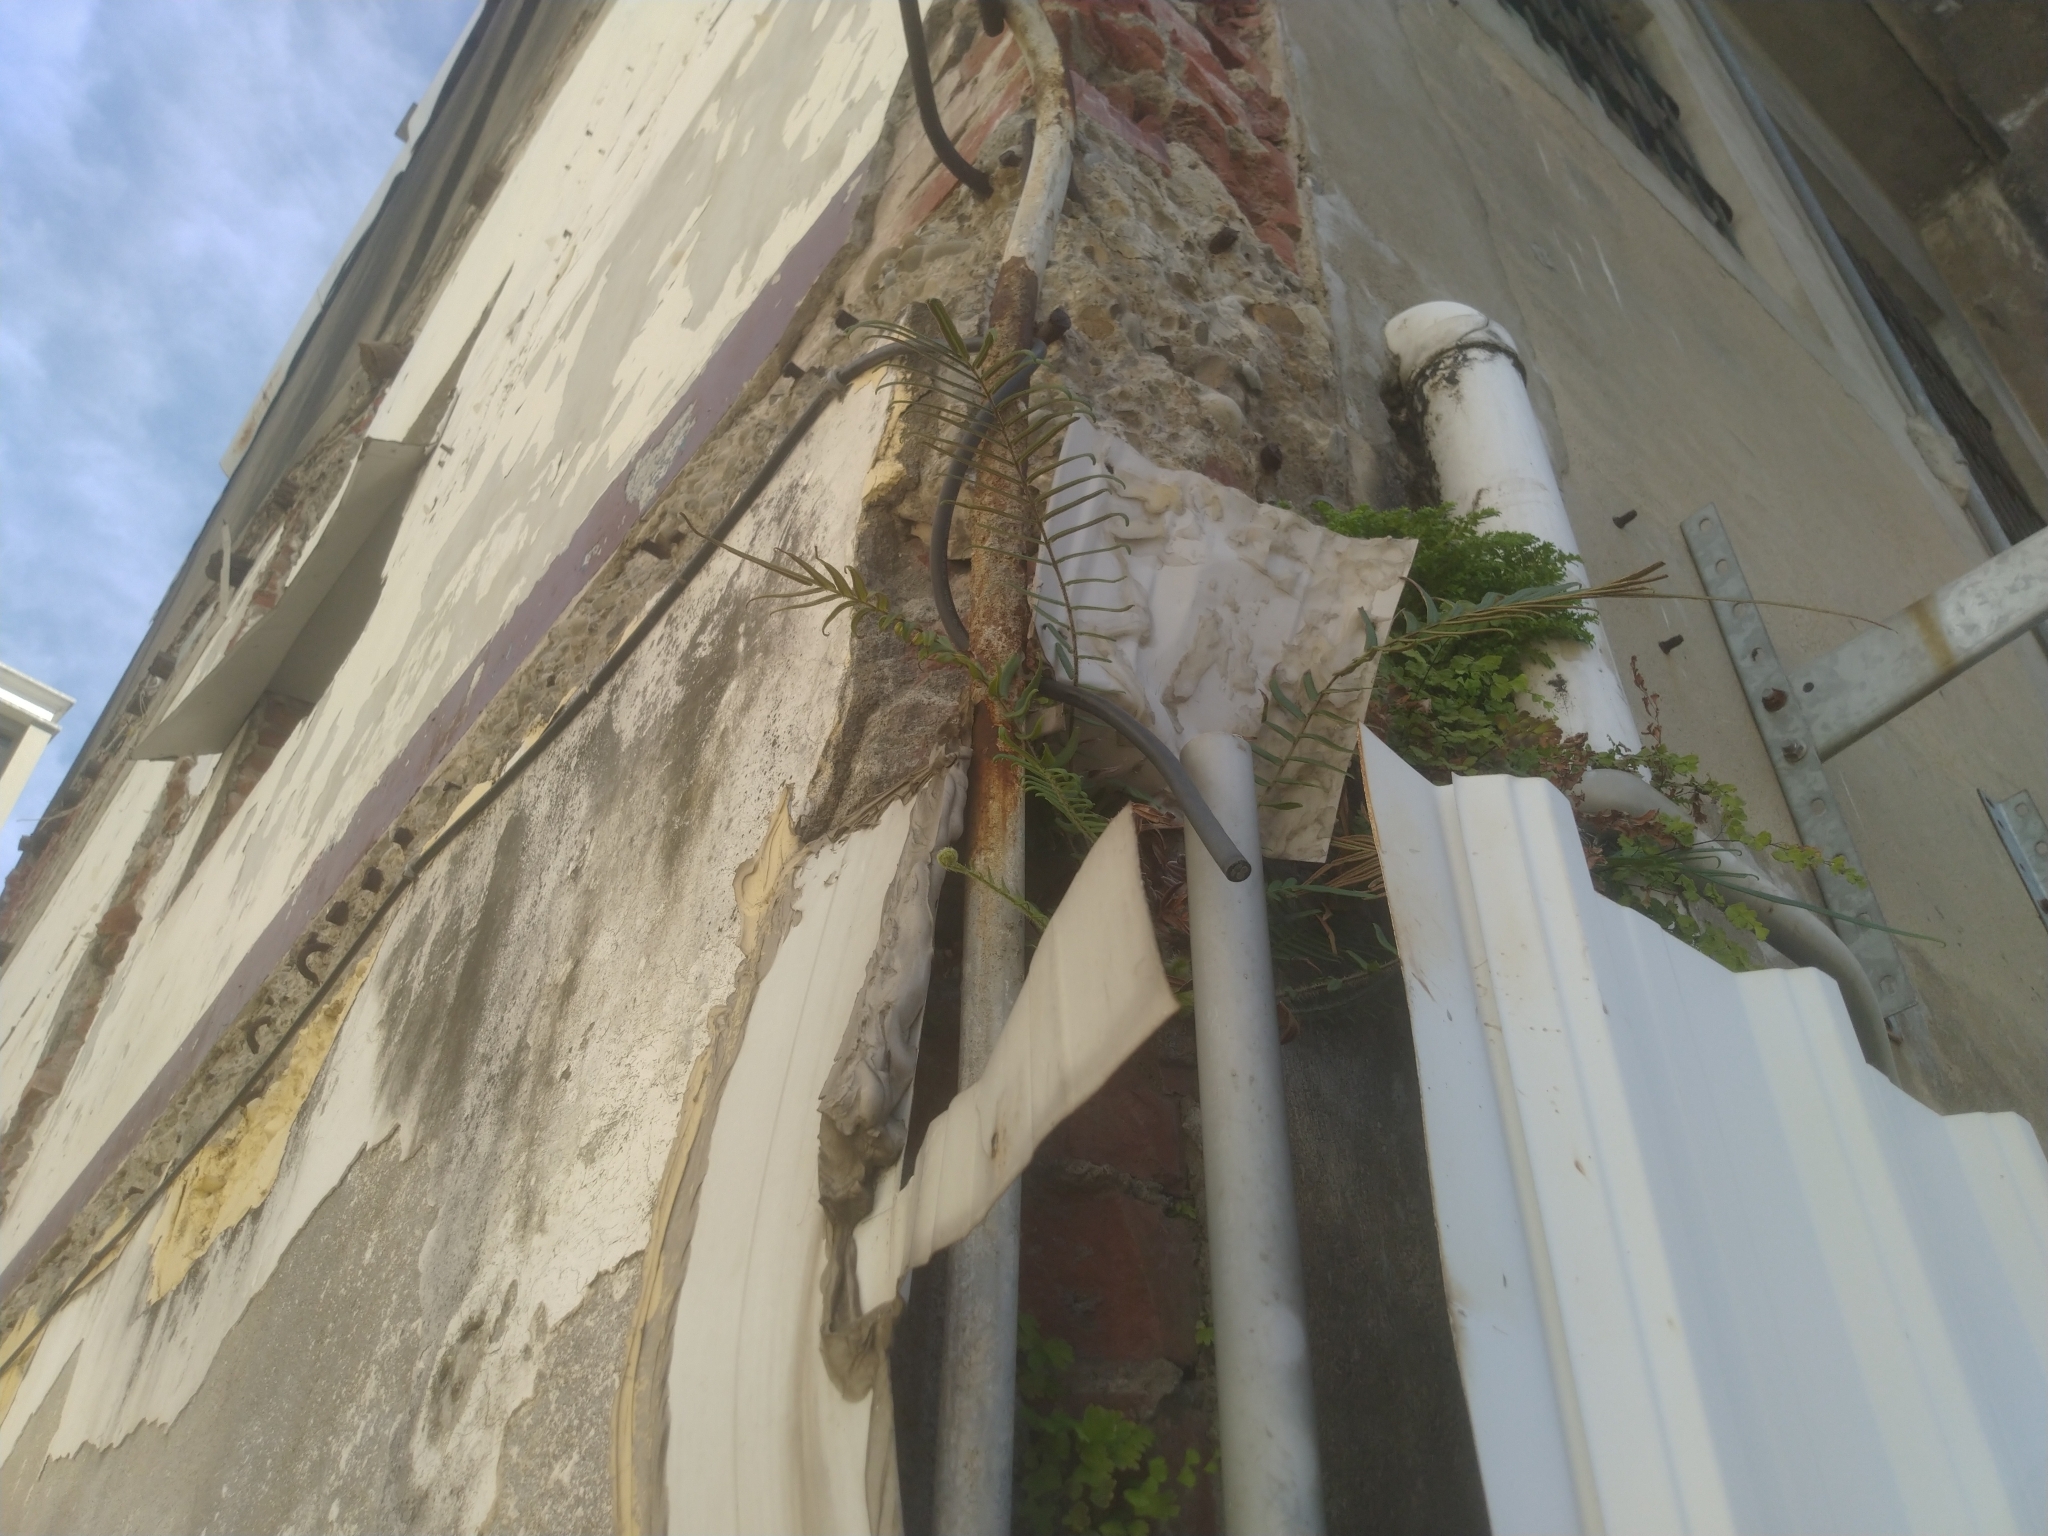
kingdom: Plantae
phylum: Tracheophyta
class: Polypodiopsida
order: Polypodiales
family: Pteridaceae
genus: Pteris
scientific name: Pteris vittata
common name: Ladder brake
